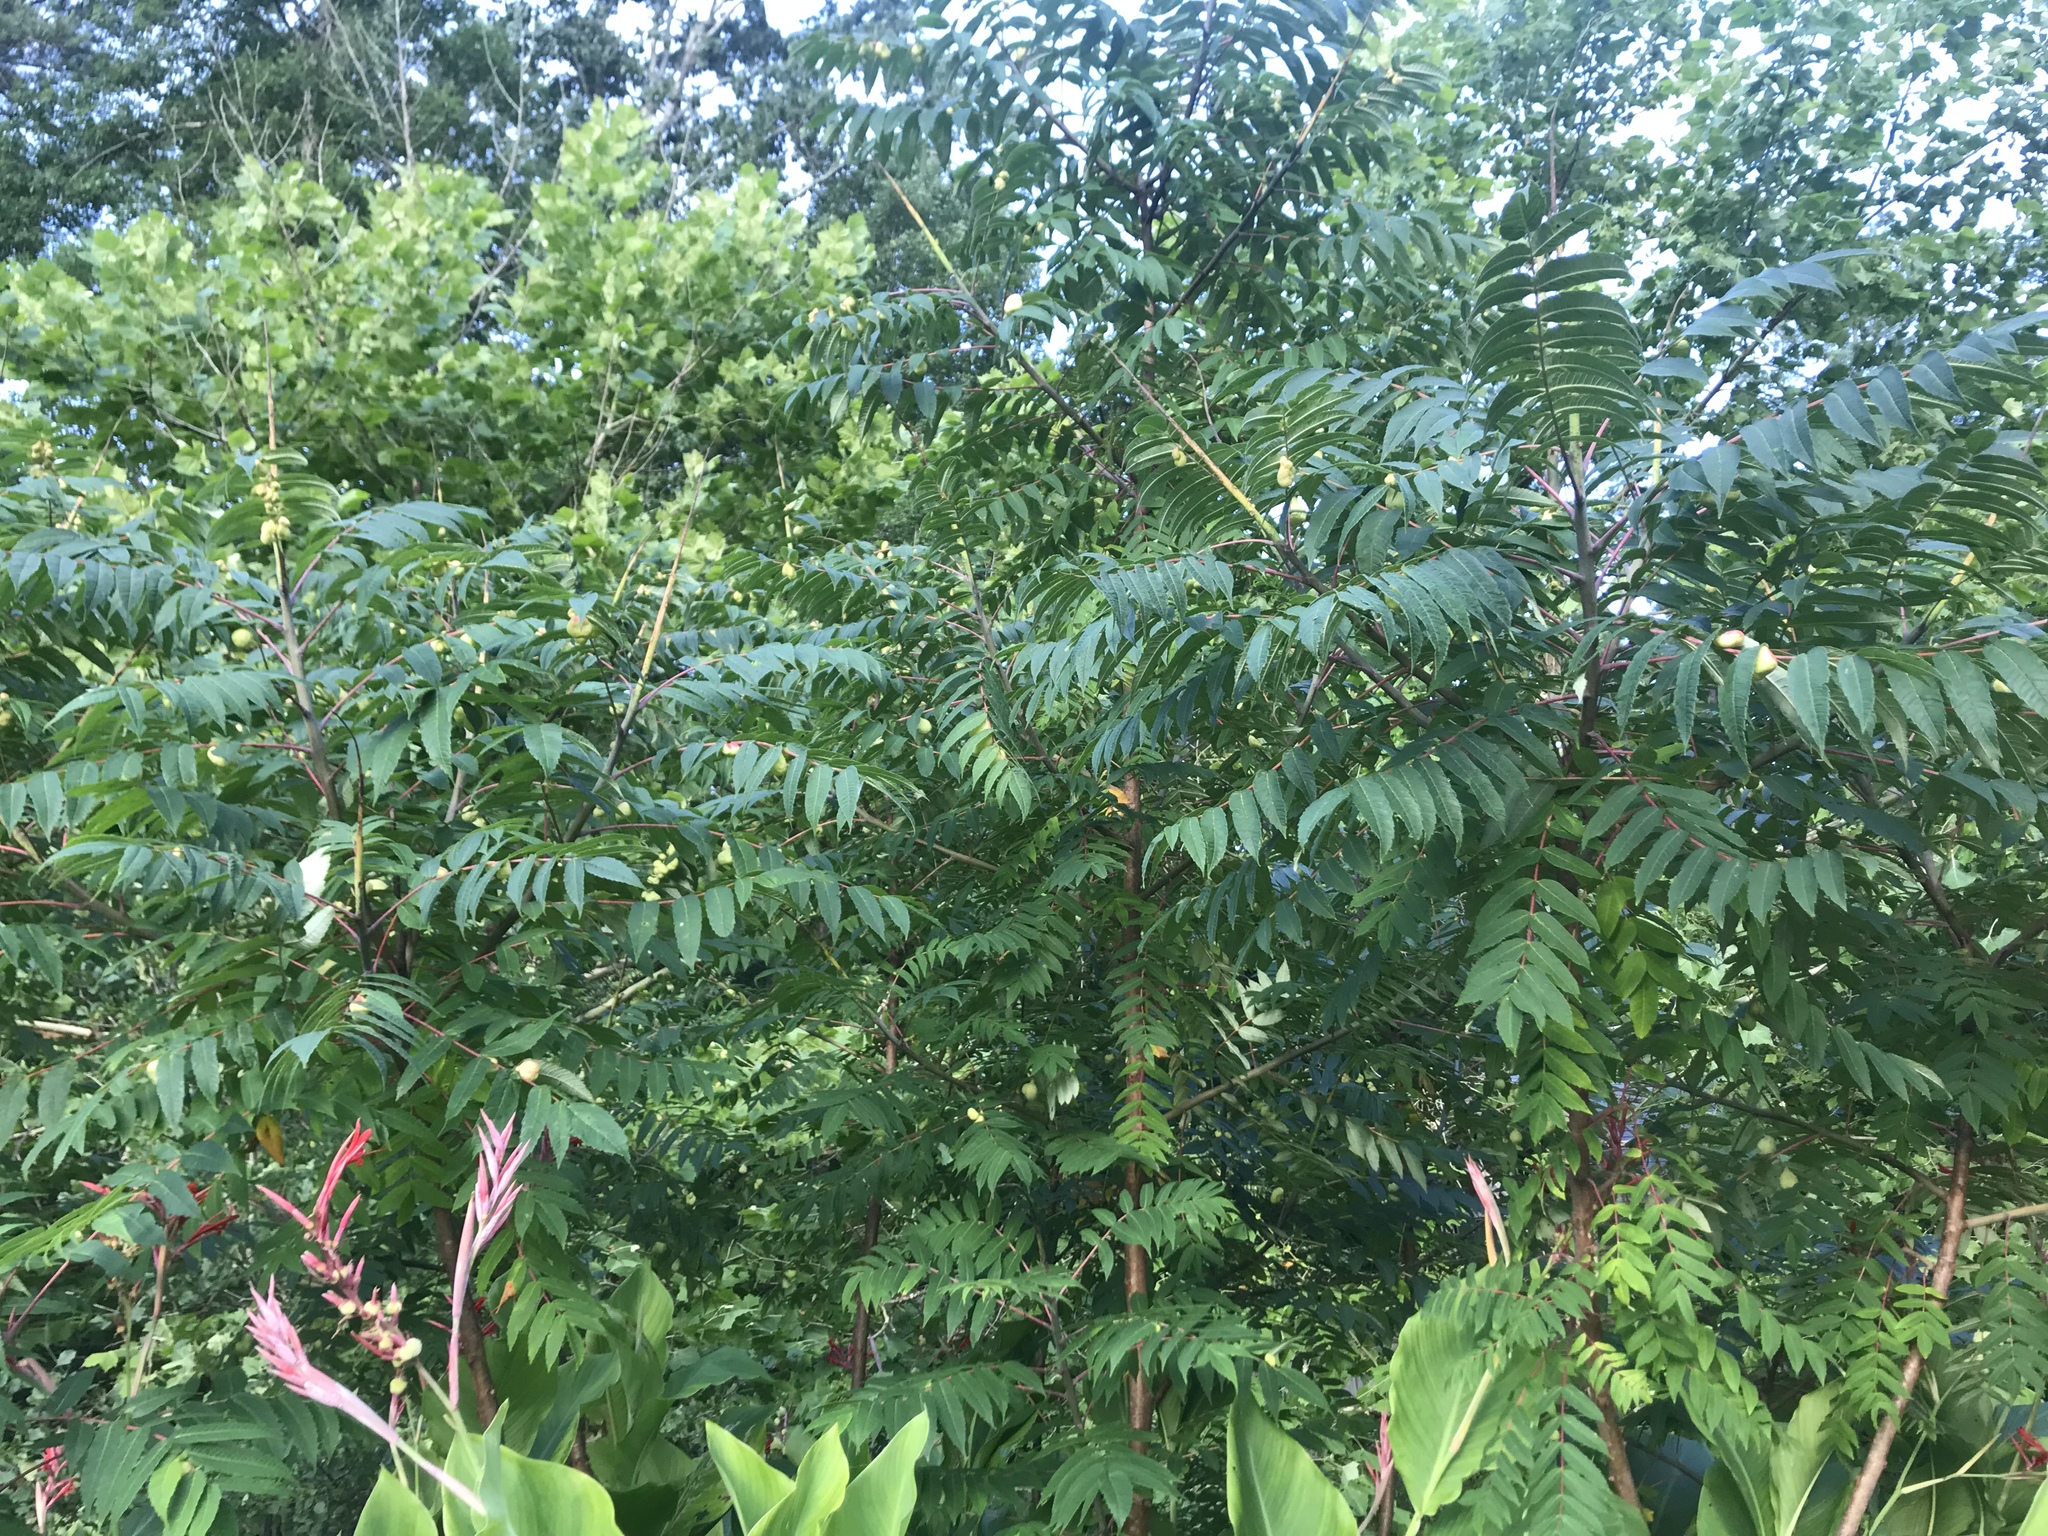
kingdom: Animalia
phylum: Arthropoda
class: Insecta
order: Hemiptera
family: Aphididae
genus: Melaphis
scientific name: Melaphis rhois
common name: Sumac gall aphid
